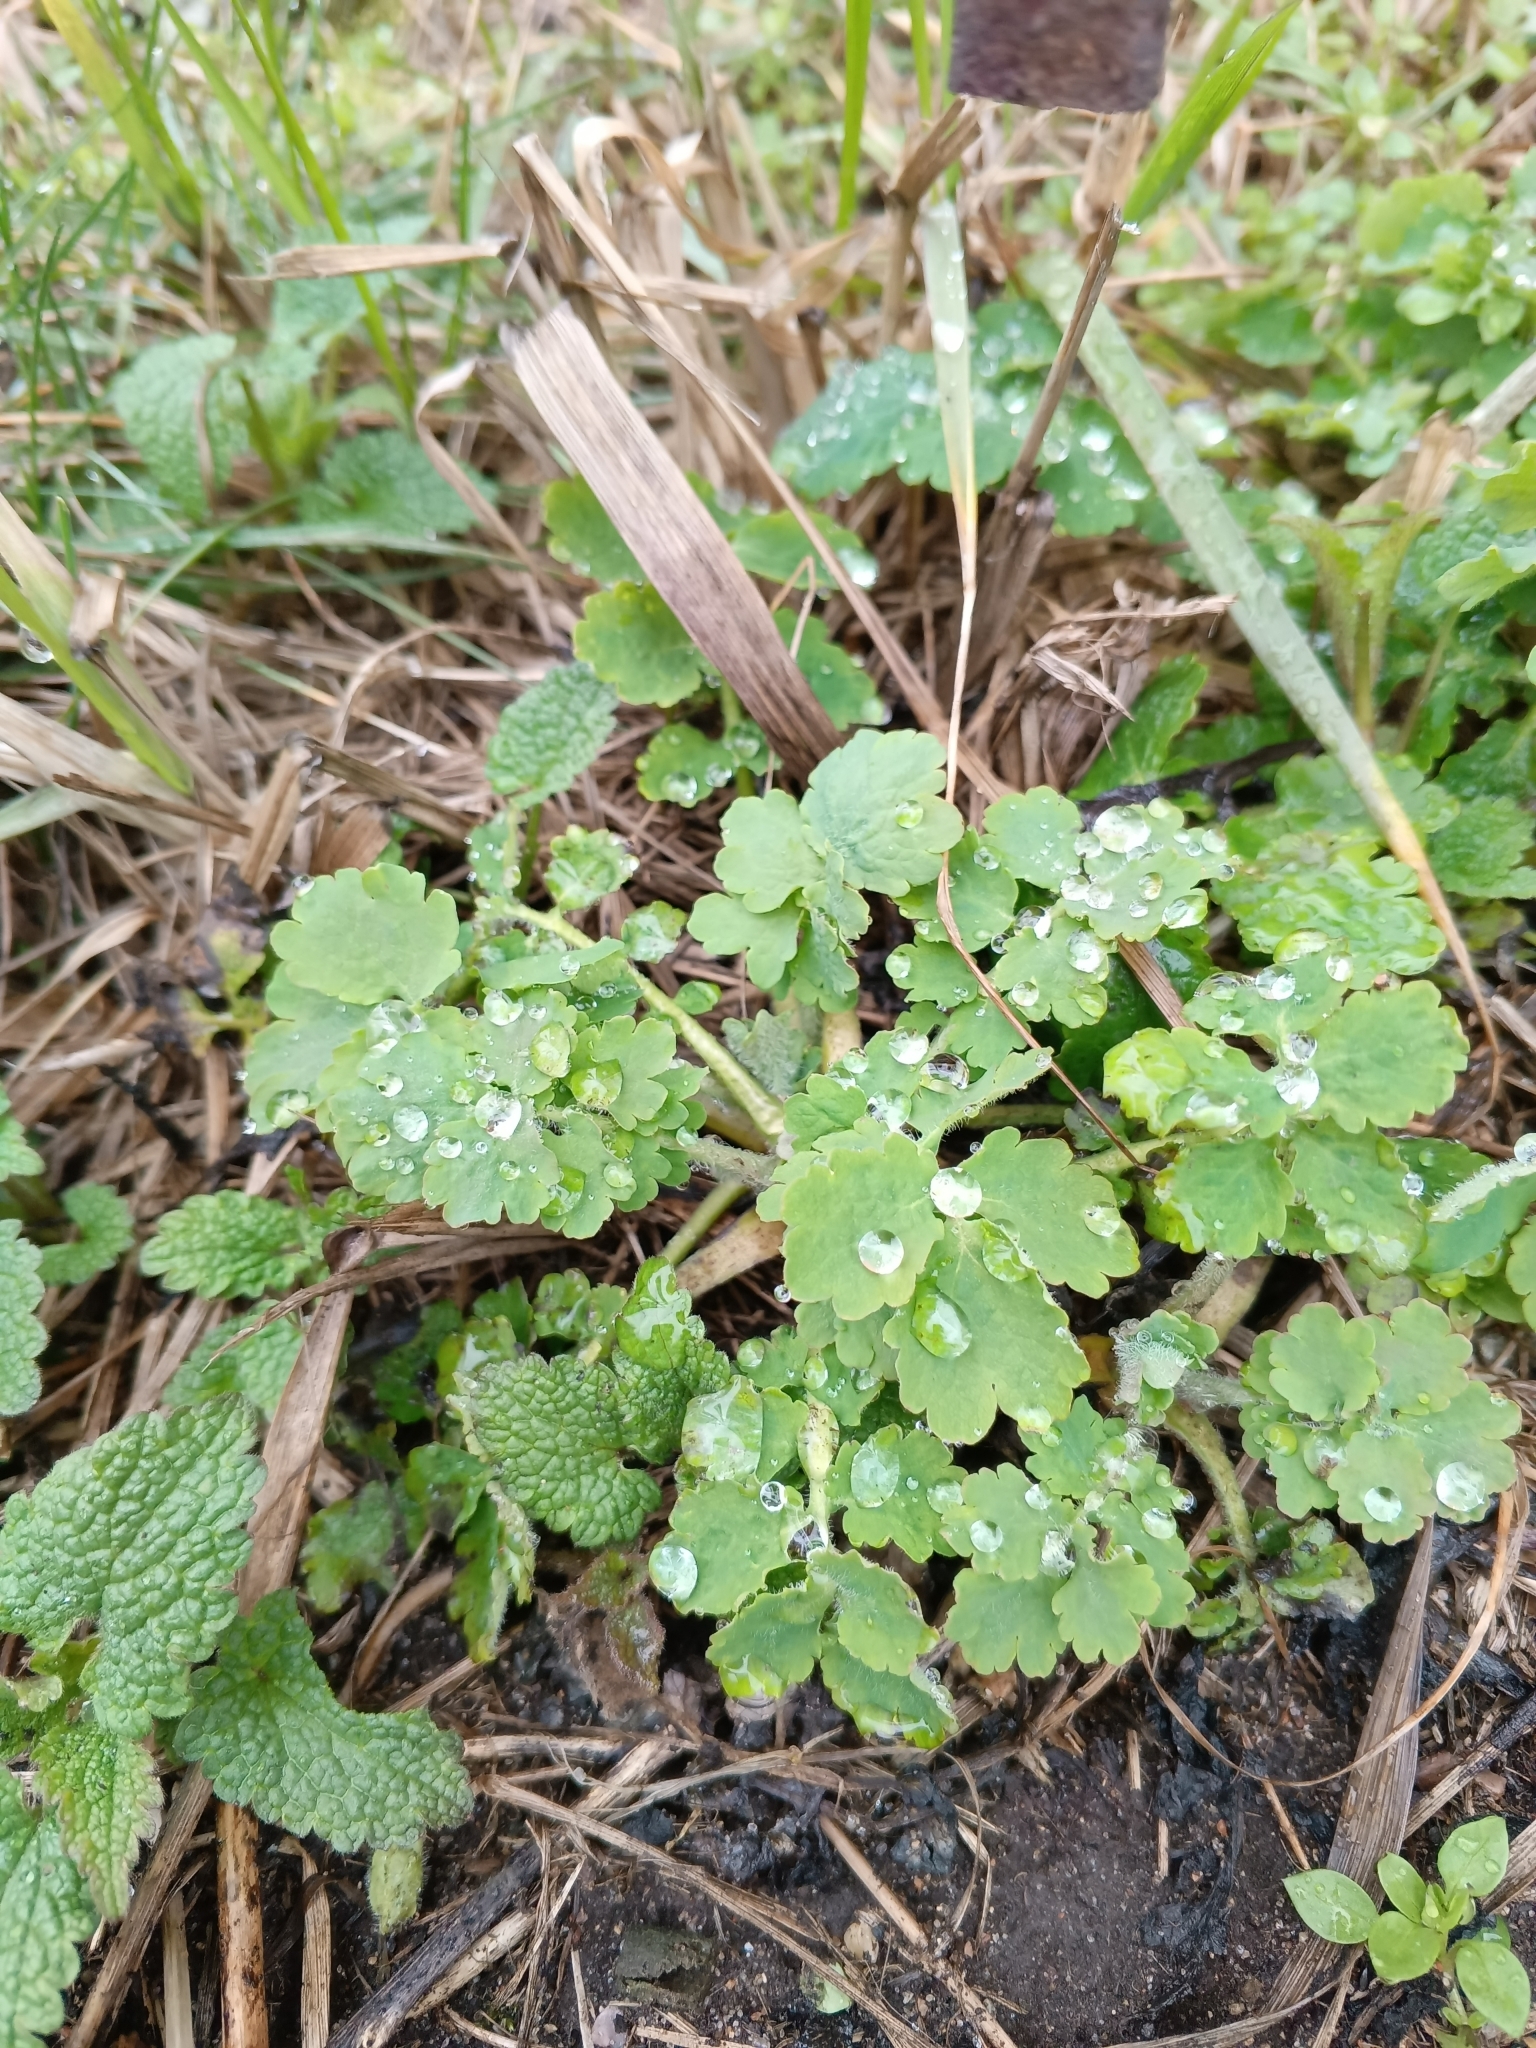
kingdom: Plantae
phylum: Tracheophyta
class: Magnoliopsida
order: Ranunculales
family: Papaveraceae
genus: Chelidonium
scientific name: Chelidonium majus
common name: Greater celandine
